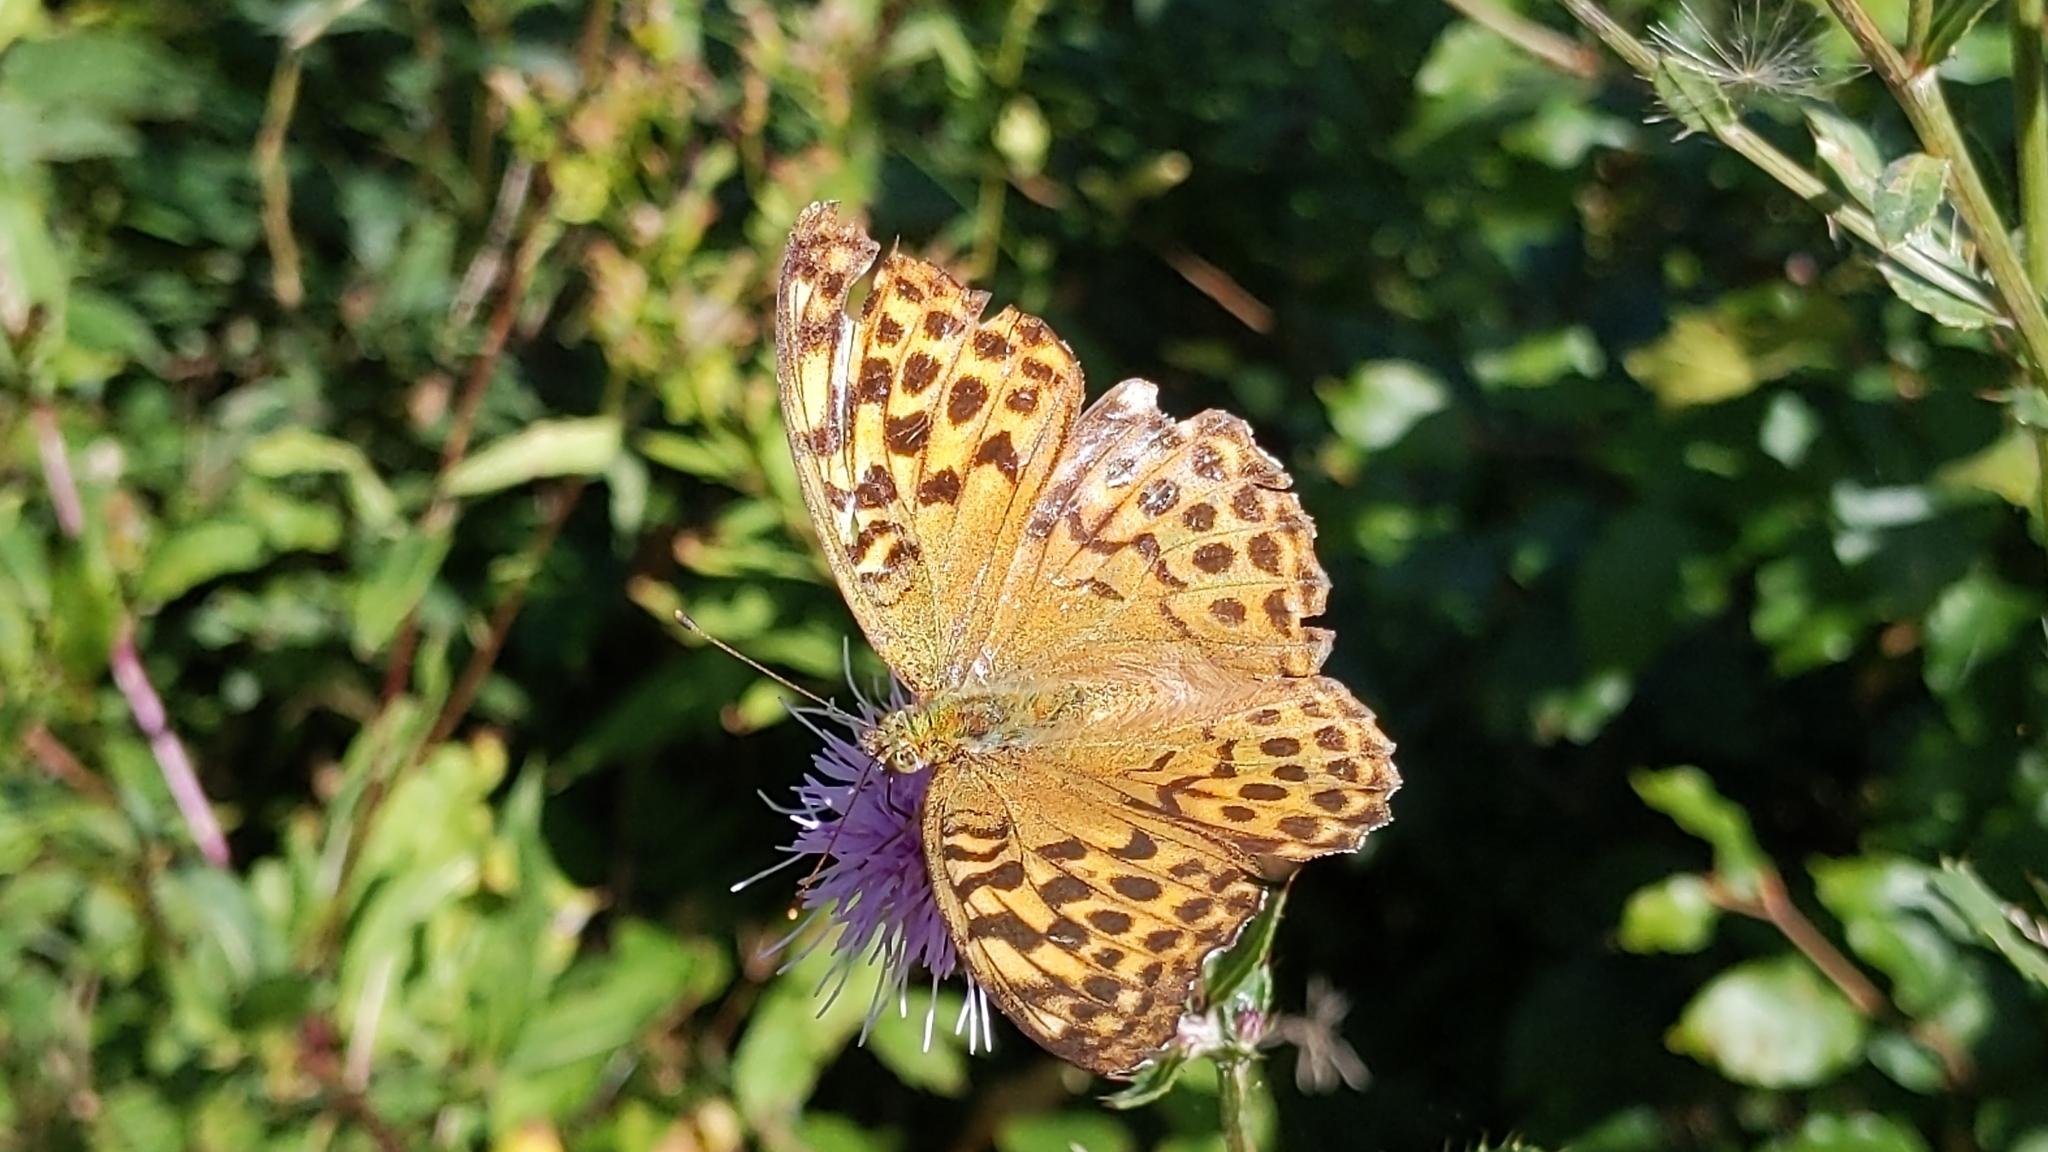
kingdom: Animalia
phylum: Arthropoda
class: Insecta
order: Lepidoptera
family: Nymphalidae
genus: Argynnis
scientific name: Argynnis paphia
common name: Silver-washed fritillary
